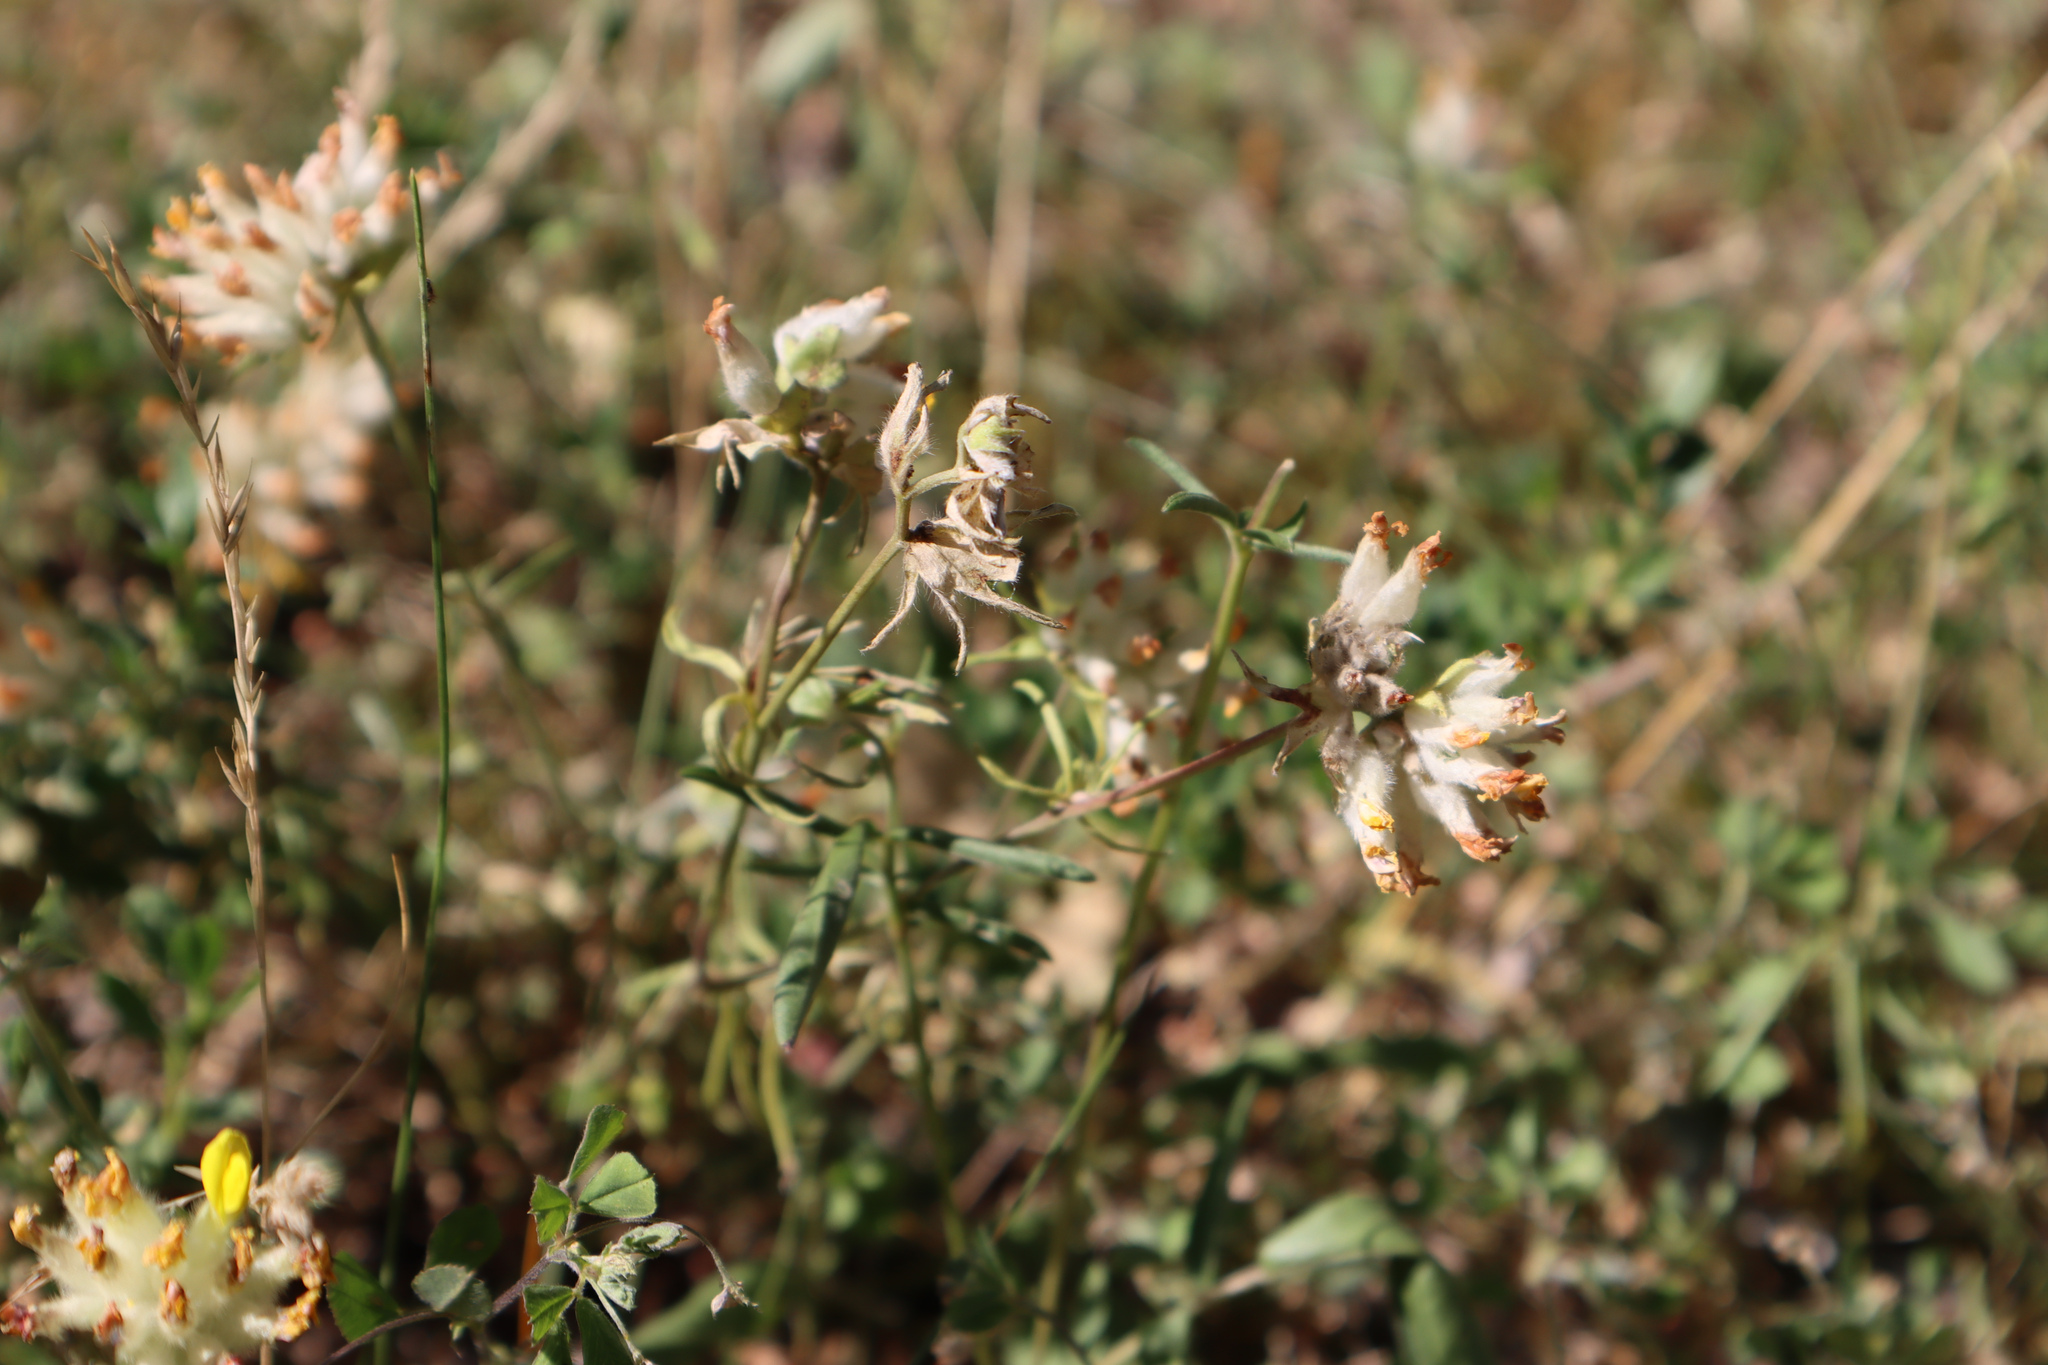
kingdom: Plantae
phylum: Tracheophyta
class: Magnoliopsida
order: Fabales
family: Fabaceae
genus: Anthyllis
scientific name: Anthyllis vulneraria
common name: Kidney vetch
